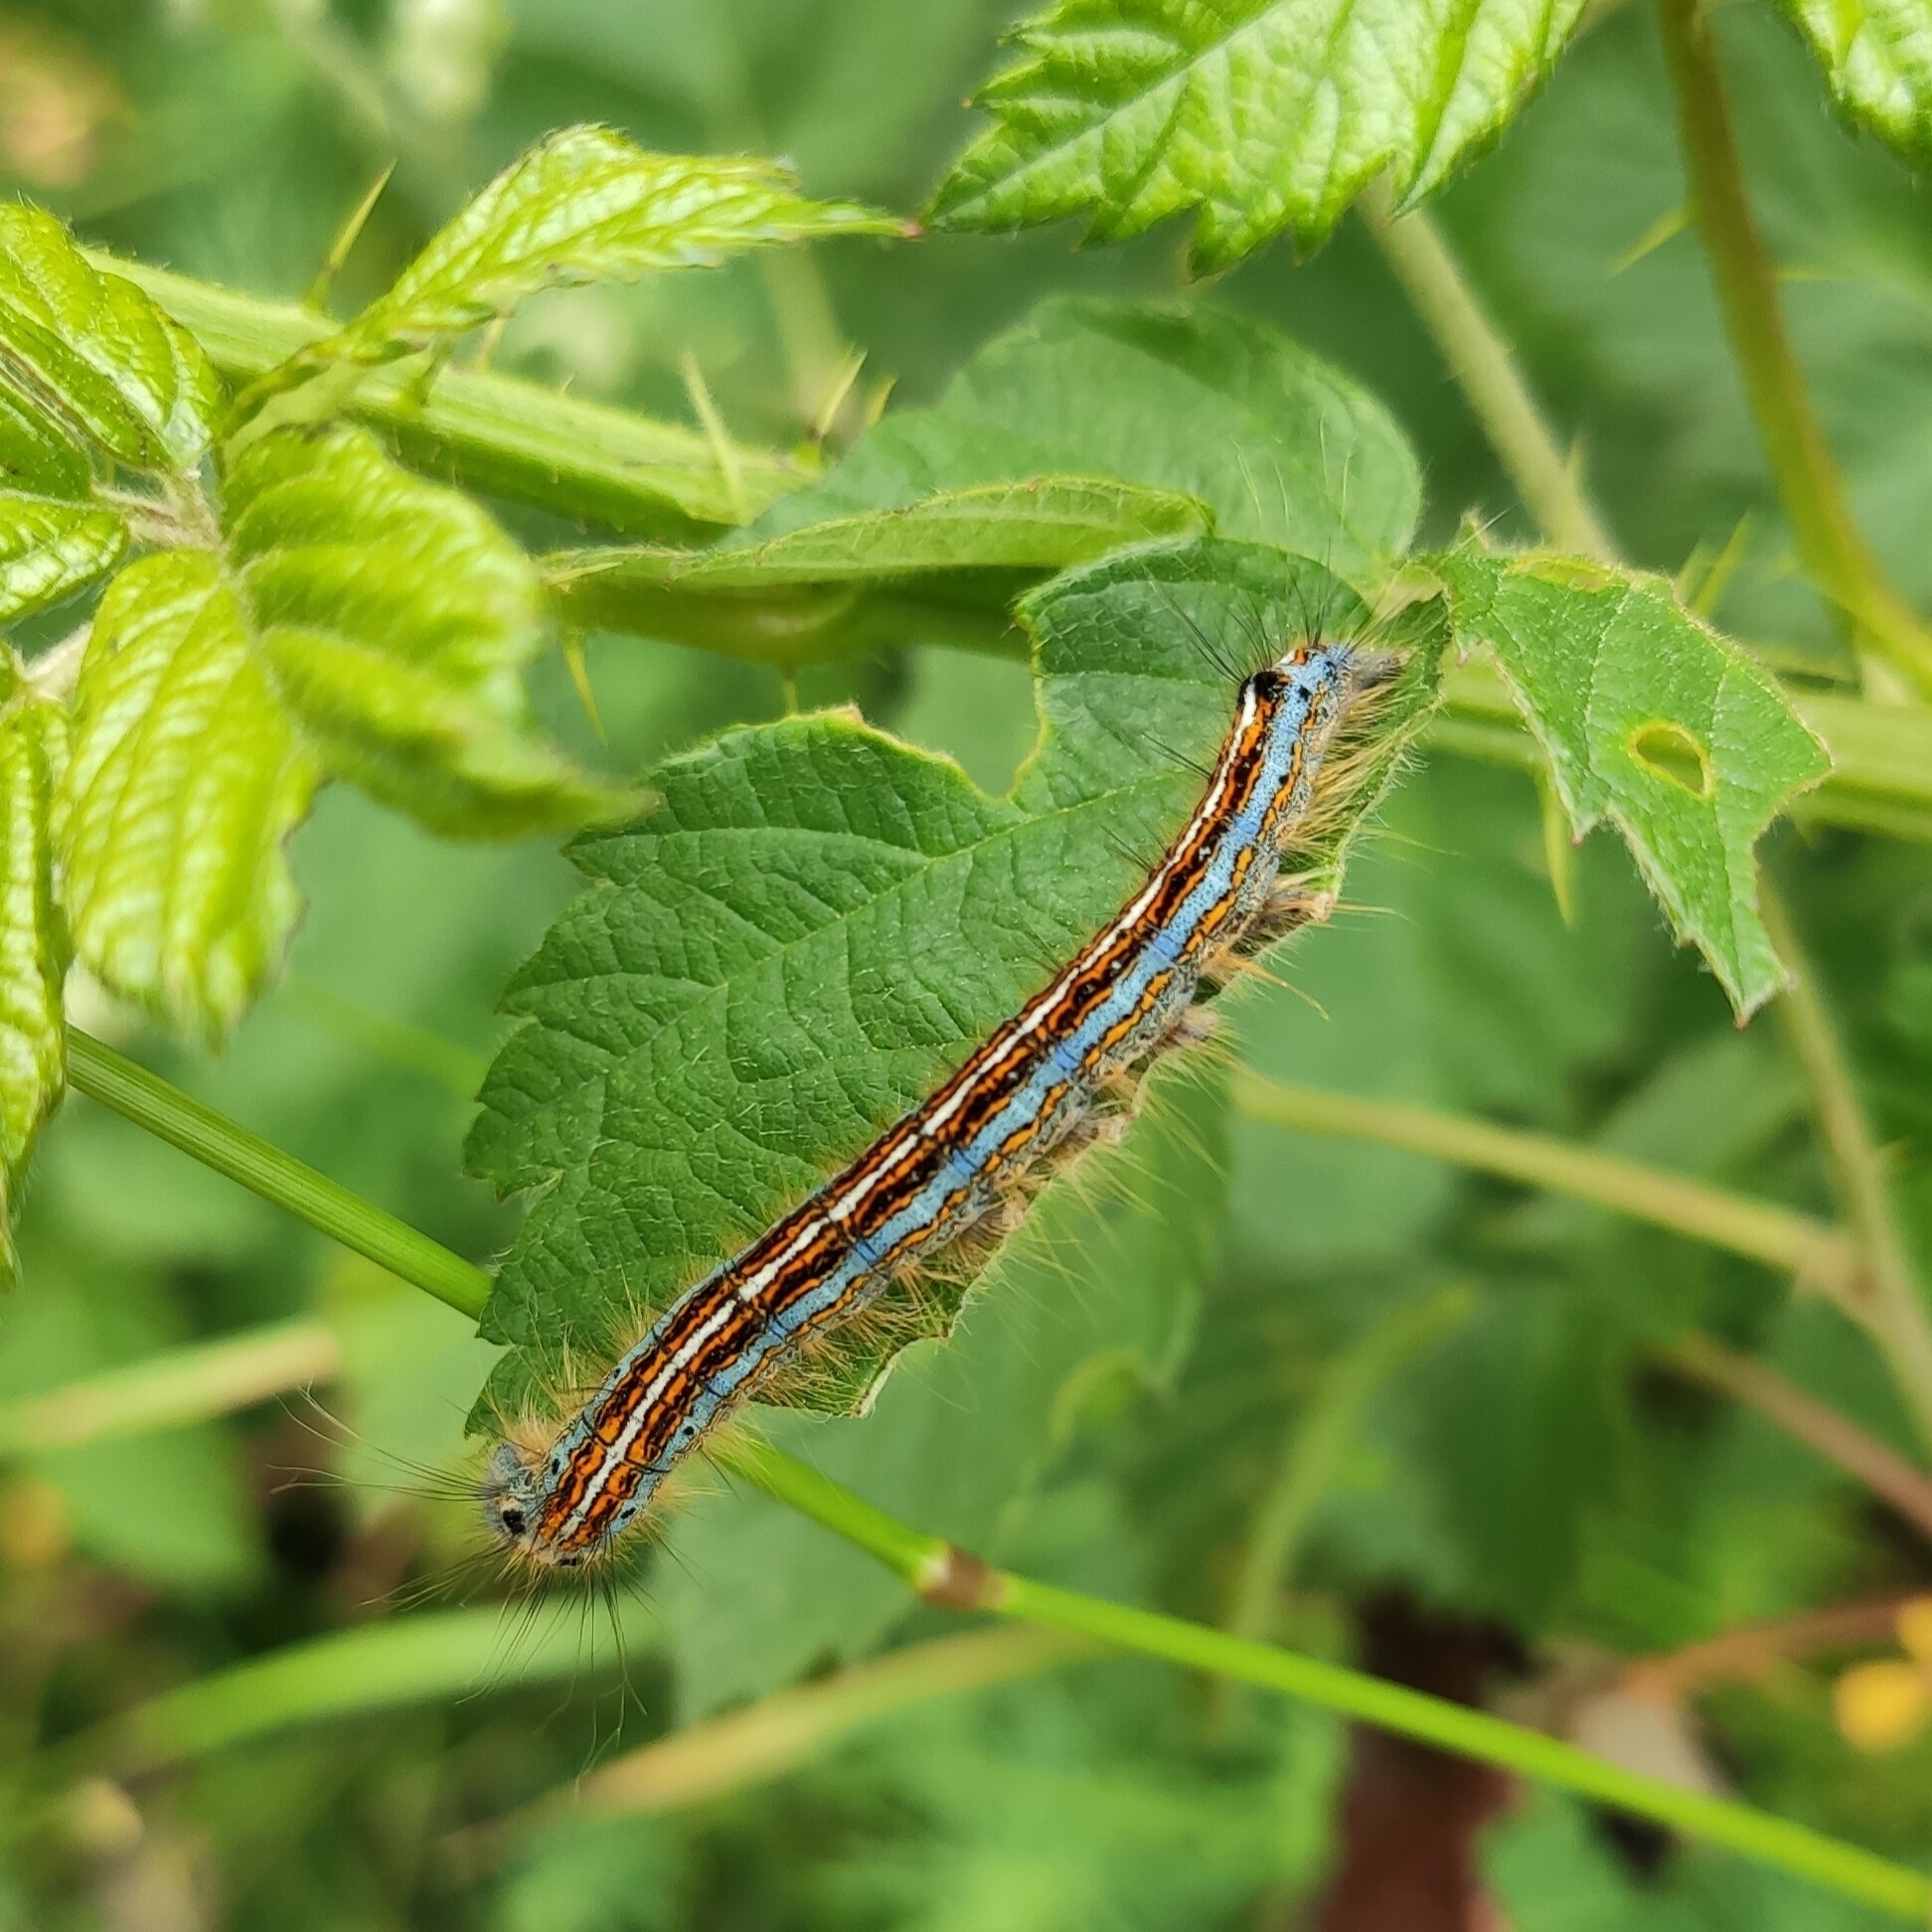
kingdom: Animalia
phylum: Arthropoda
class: Insecta
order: Lepidoptera
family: Lasiocampidae
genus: Malacosoma
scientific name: Malacosoma neustria
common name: The lackey
